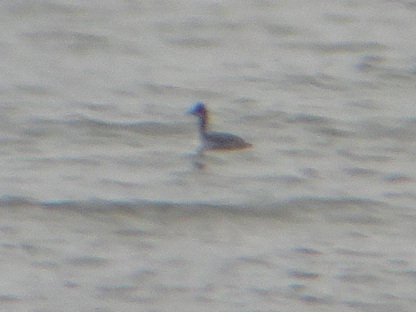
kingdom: Animalia
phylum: Chordata
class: Aves
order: Podicipediformes
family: Podicipedidae
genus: Podiceps
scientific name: Podiceps nigricollis
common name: Black-necked grebe
